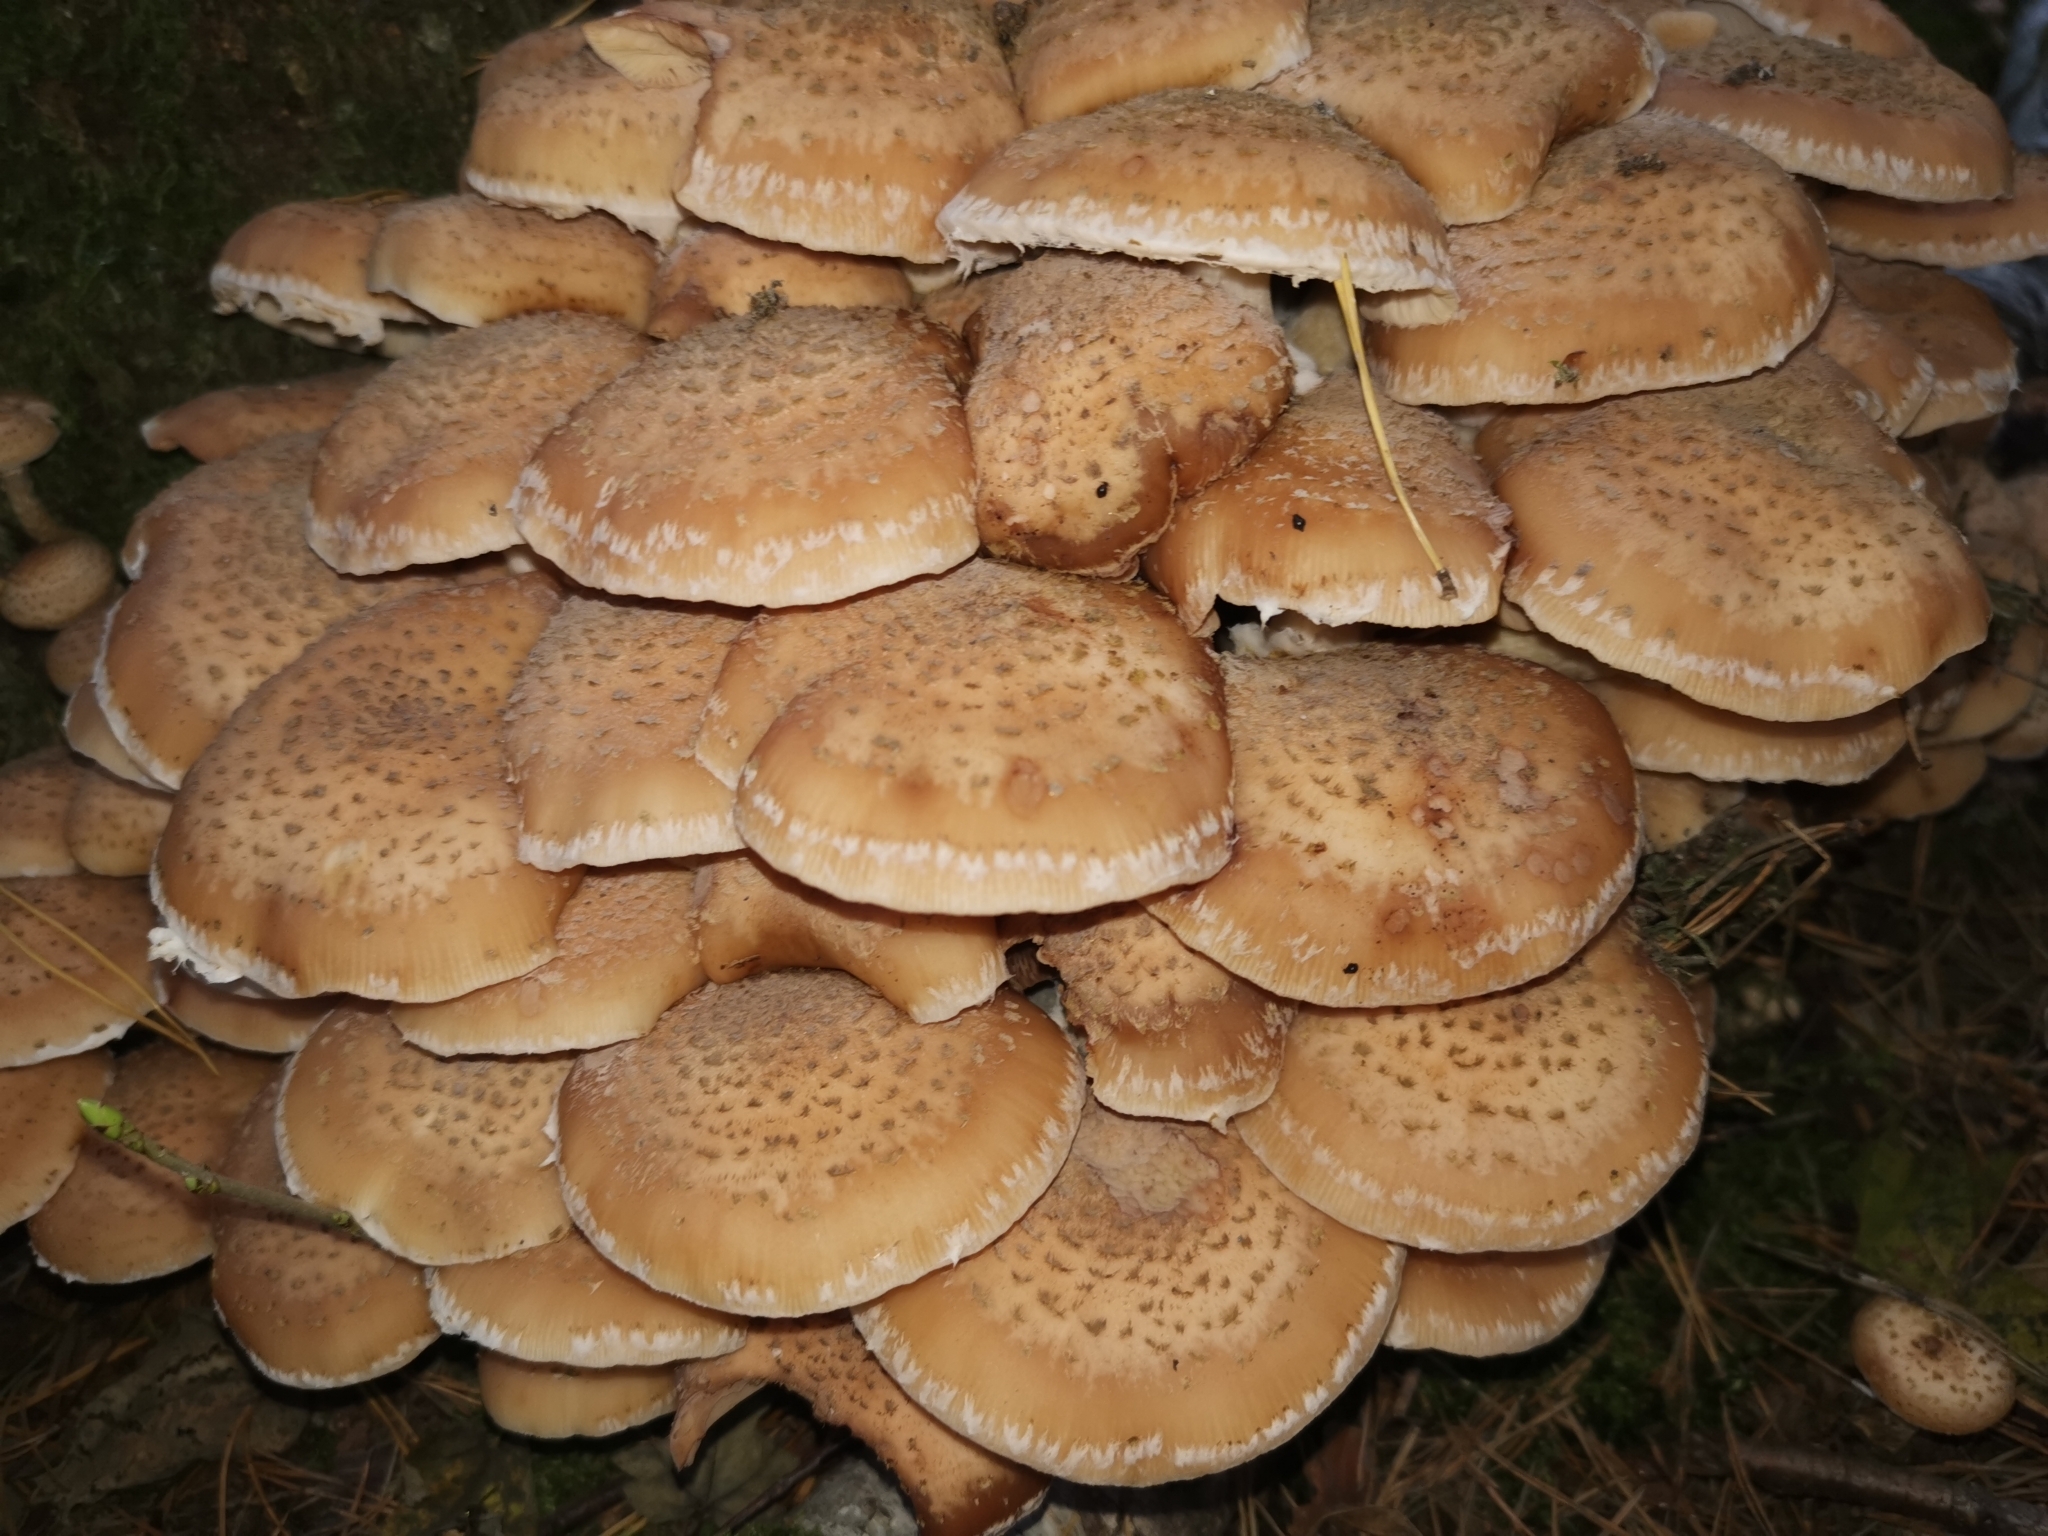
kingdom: Fungi
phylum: Basidiomycota
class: Agaricomycetes
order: Agaricales
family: Physalacriaceae
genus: Armillaria
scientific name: Armillaria ostoyae
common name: Dark honey fungus
